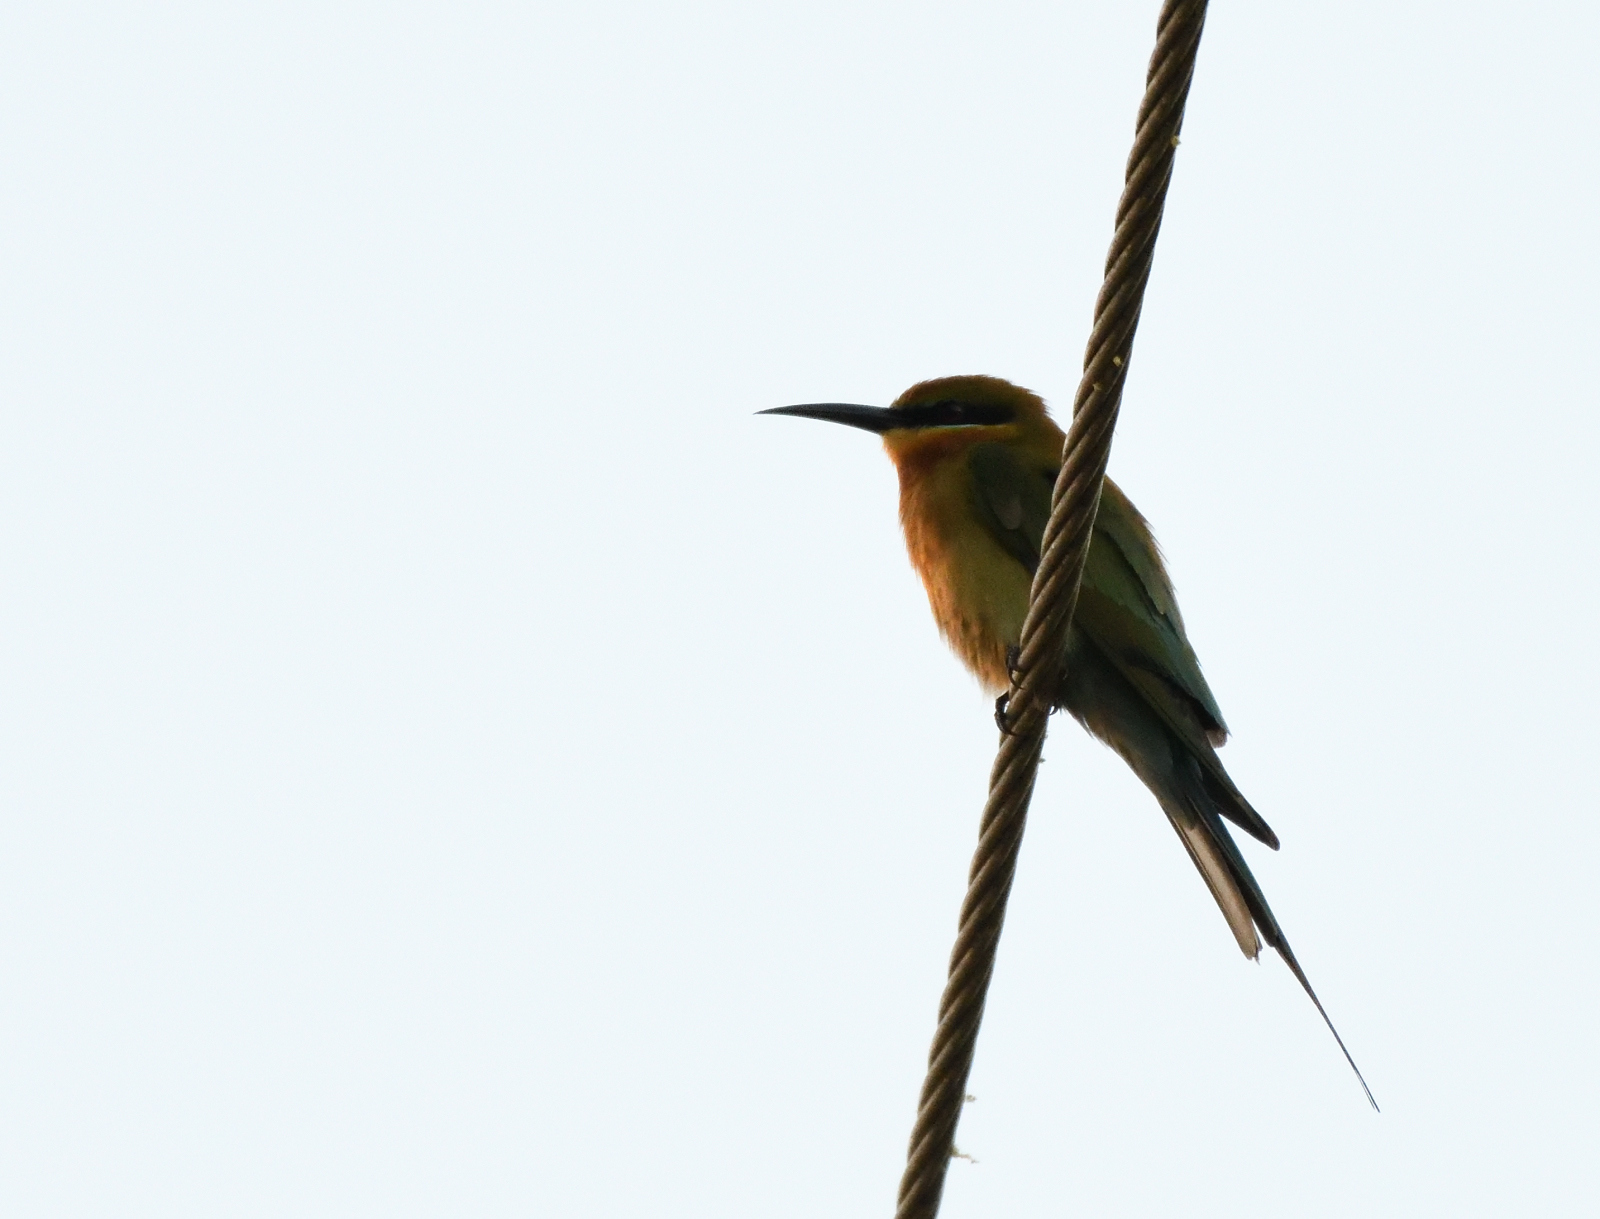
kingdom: Animalia
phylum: Chordata
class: Aves
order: Coraciiformes
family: Meropidae
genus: Merops
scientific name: Merops philippinus
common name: Blue-tailed bee-eater
